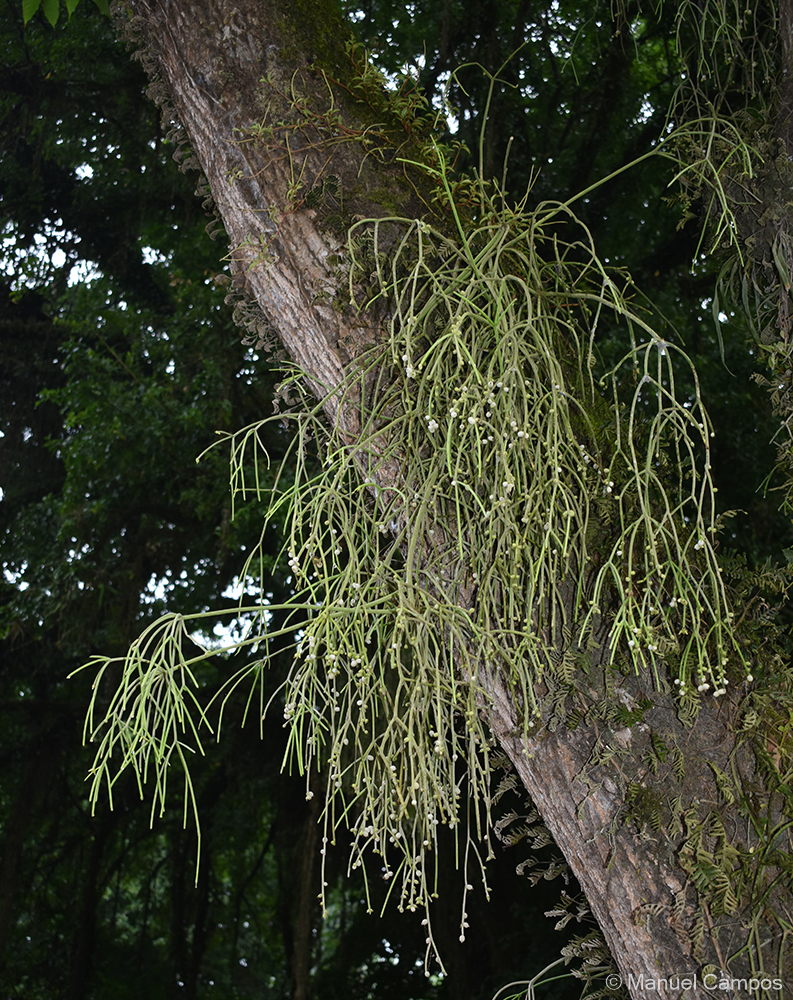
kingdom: Plantae
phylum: Tracheophyta
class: Magnoliopsida
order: Caryophyllales
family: Cactaceae
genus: Rhipsalis
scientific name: Rhipsalis baccifera
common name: Mistletoe cactus
